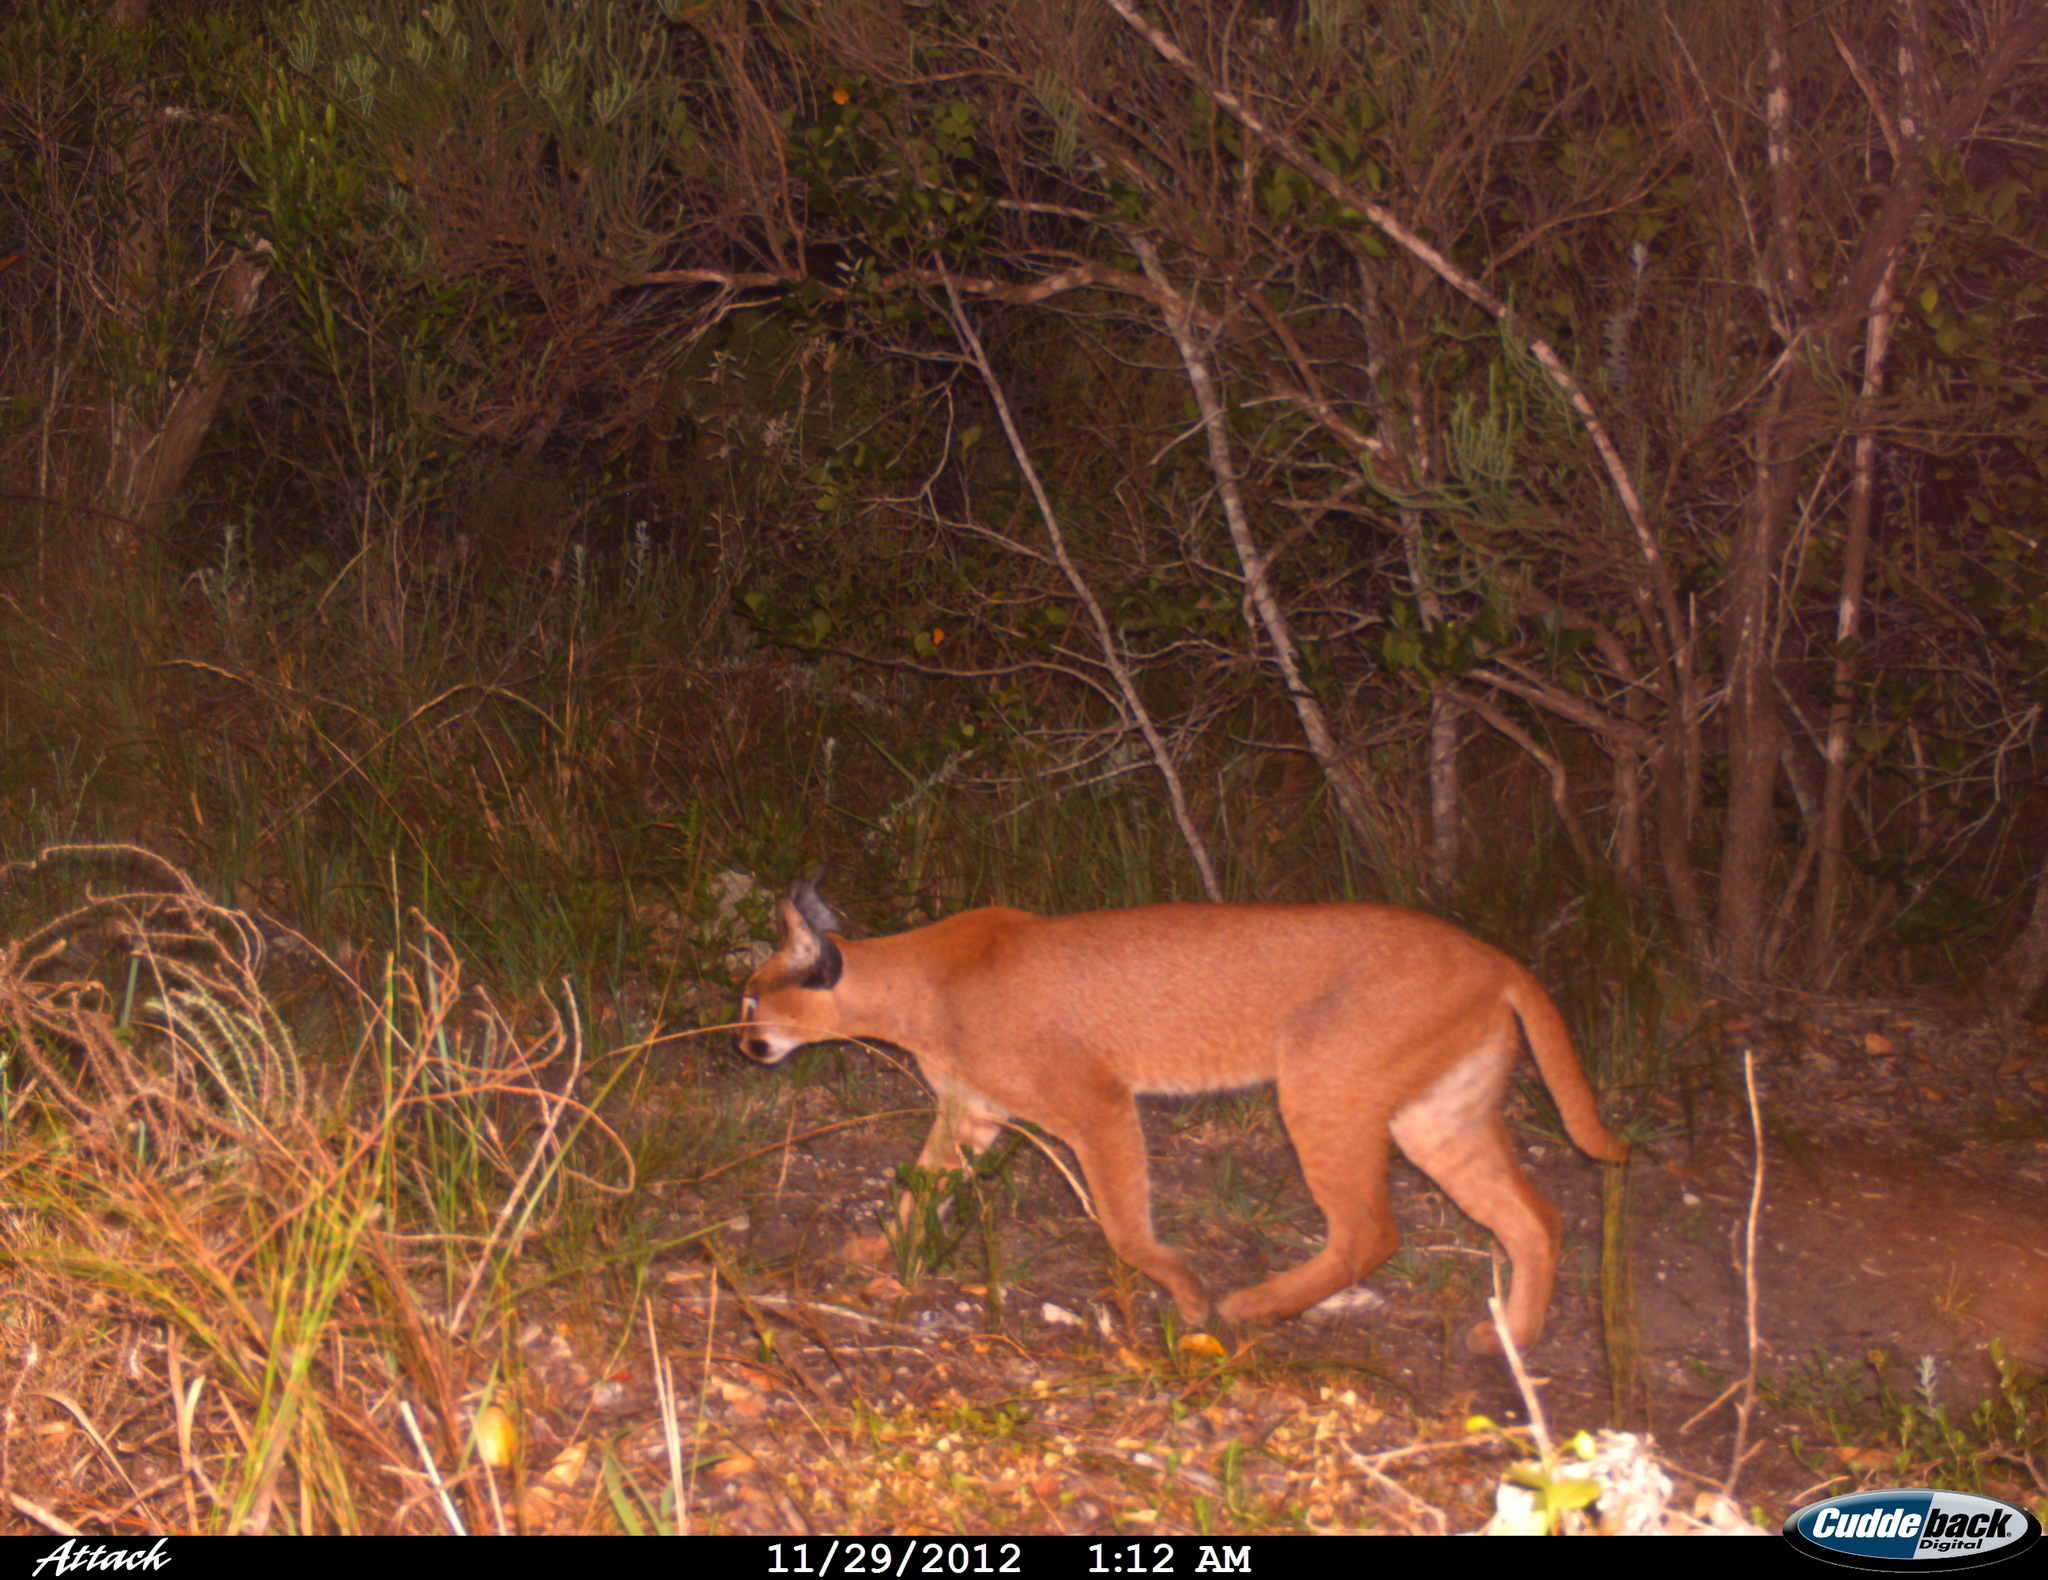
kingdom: Animalia
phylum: Chordata
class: Mammalia
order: Carnivora
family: Felidae
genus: Caracal
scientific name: Caracal caracal
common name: Caracal
